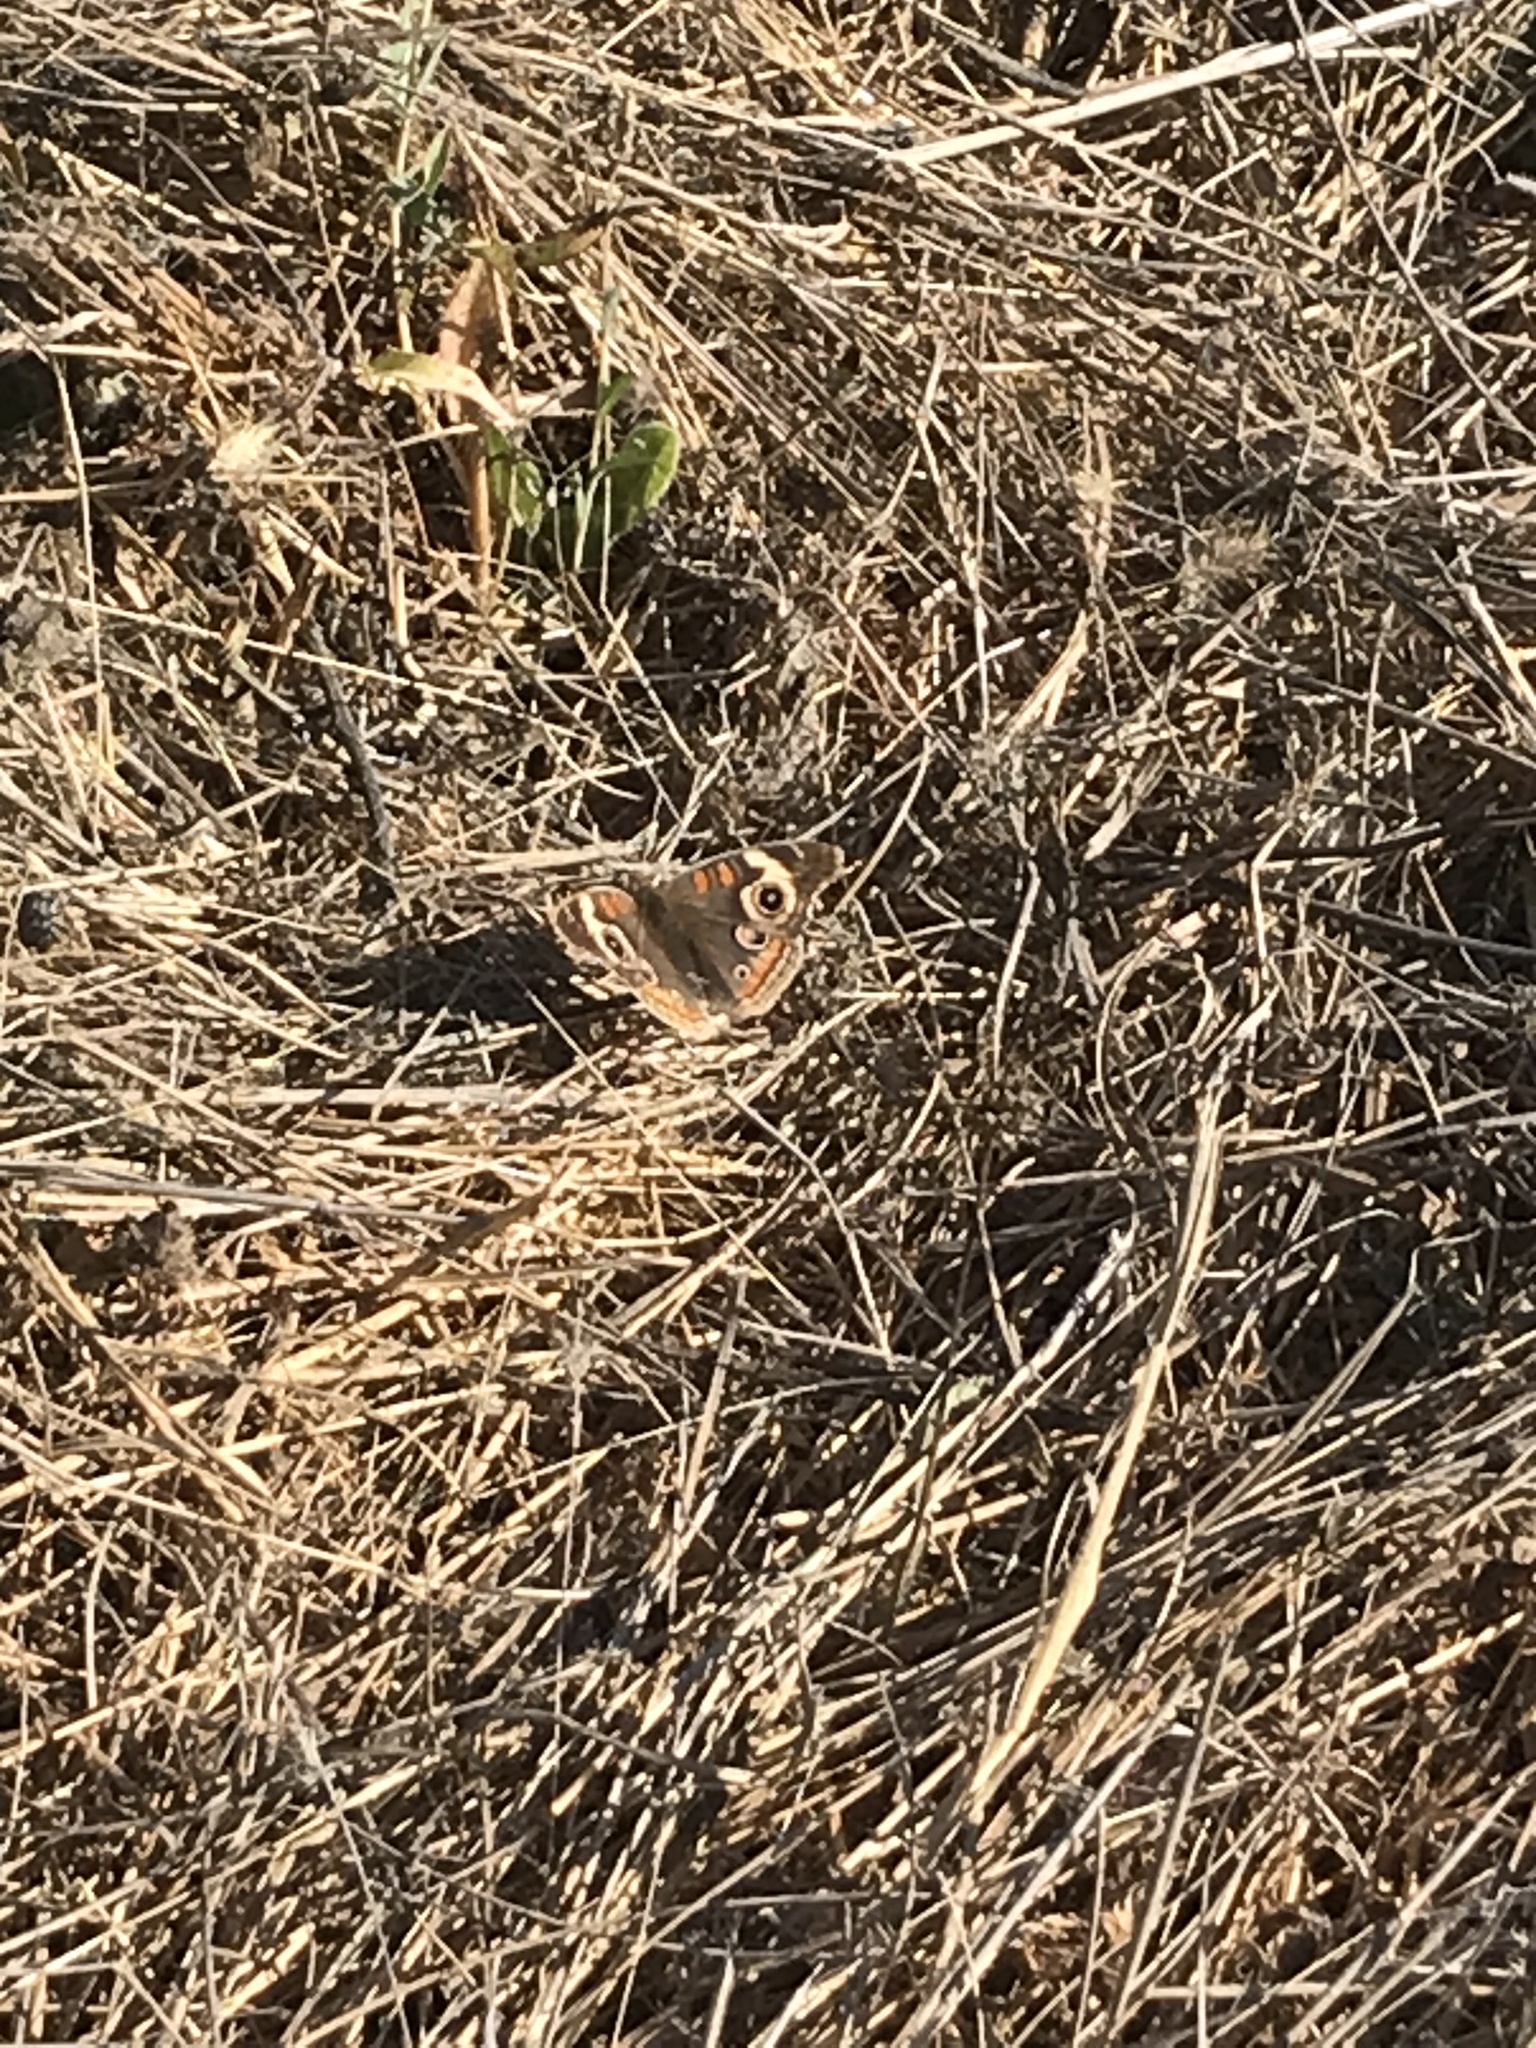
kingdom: Animalia
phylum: Arthropoda
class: Insecta
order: Lepidoptera
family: Nymphalidae
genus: Junonia
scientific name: Junonia grisea
